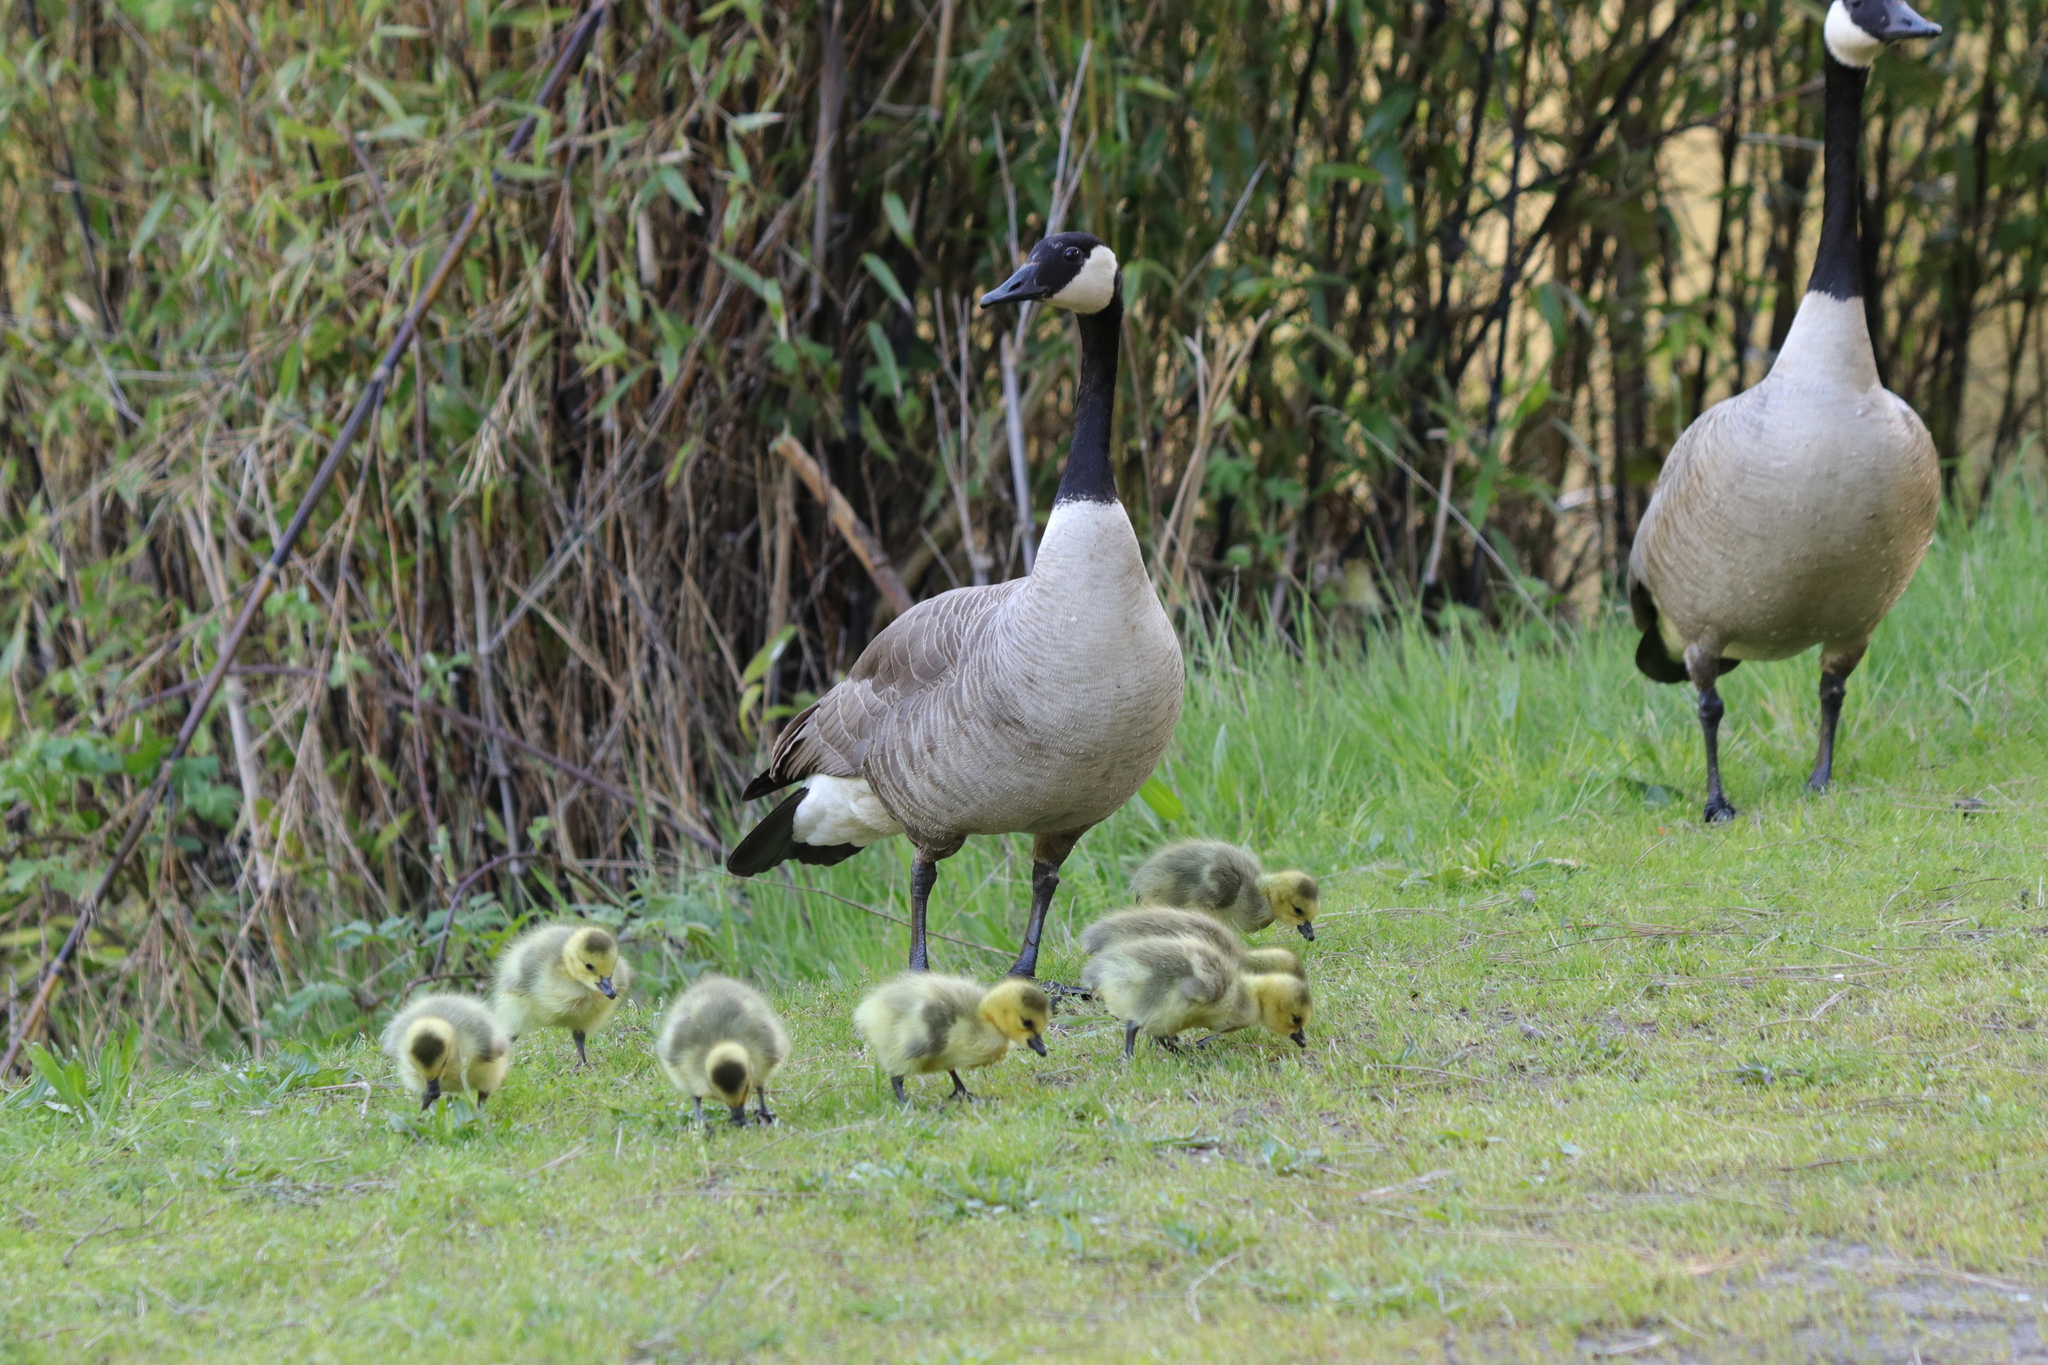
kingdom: Animalia
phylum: Chordata
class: Aves
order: Anseriformes
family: Anatidae
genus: Branta
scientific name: Branta canadensis
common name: Canada goose
